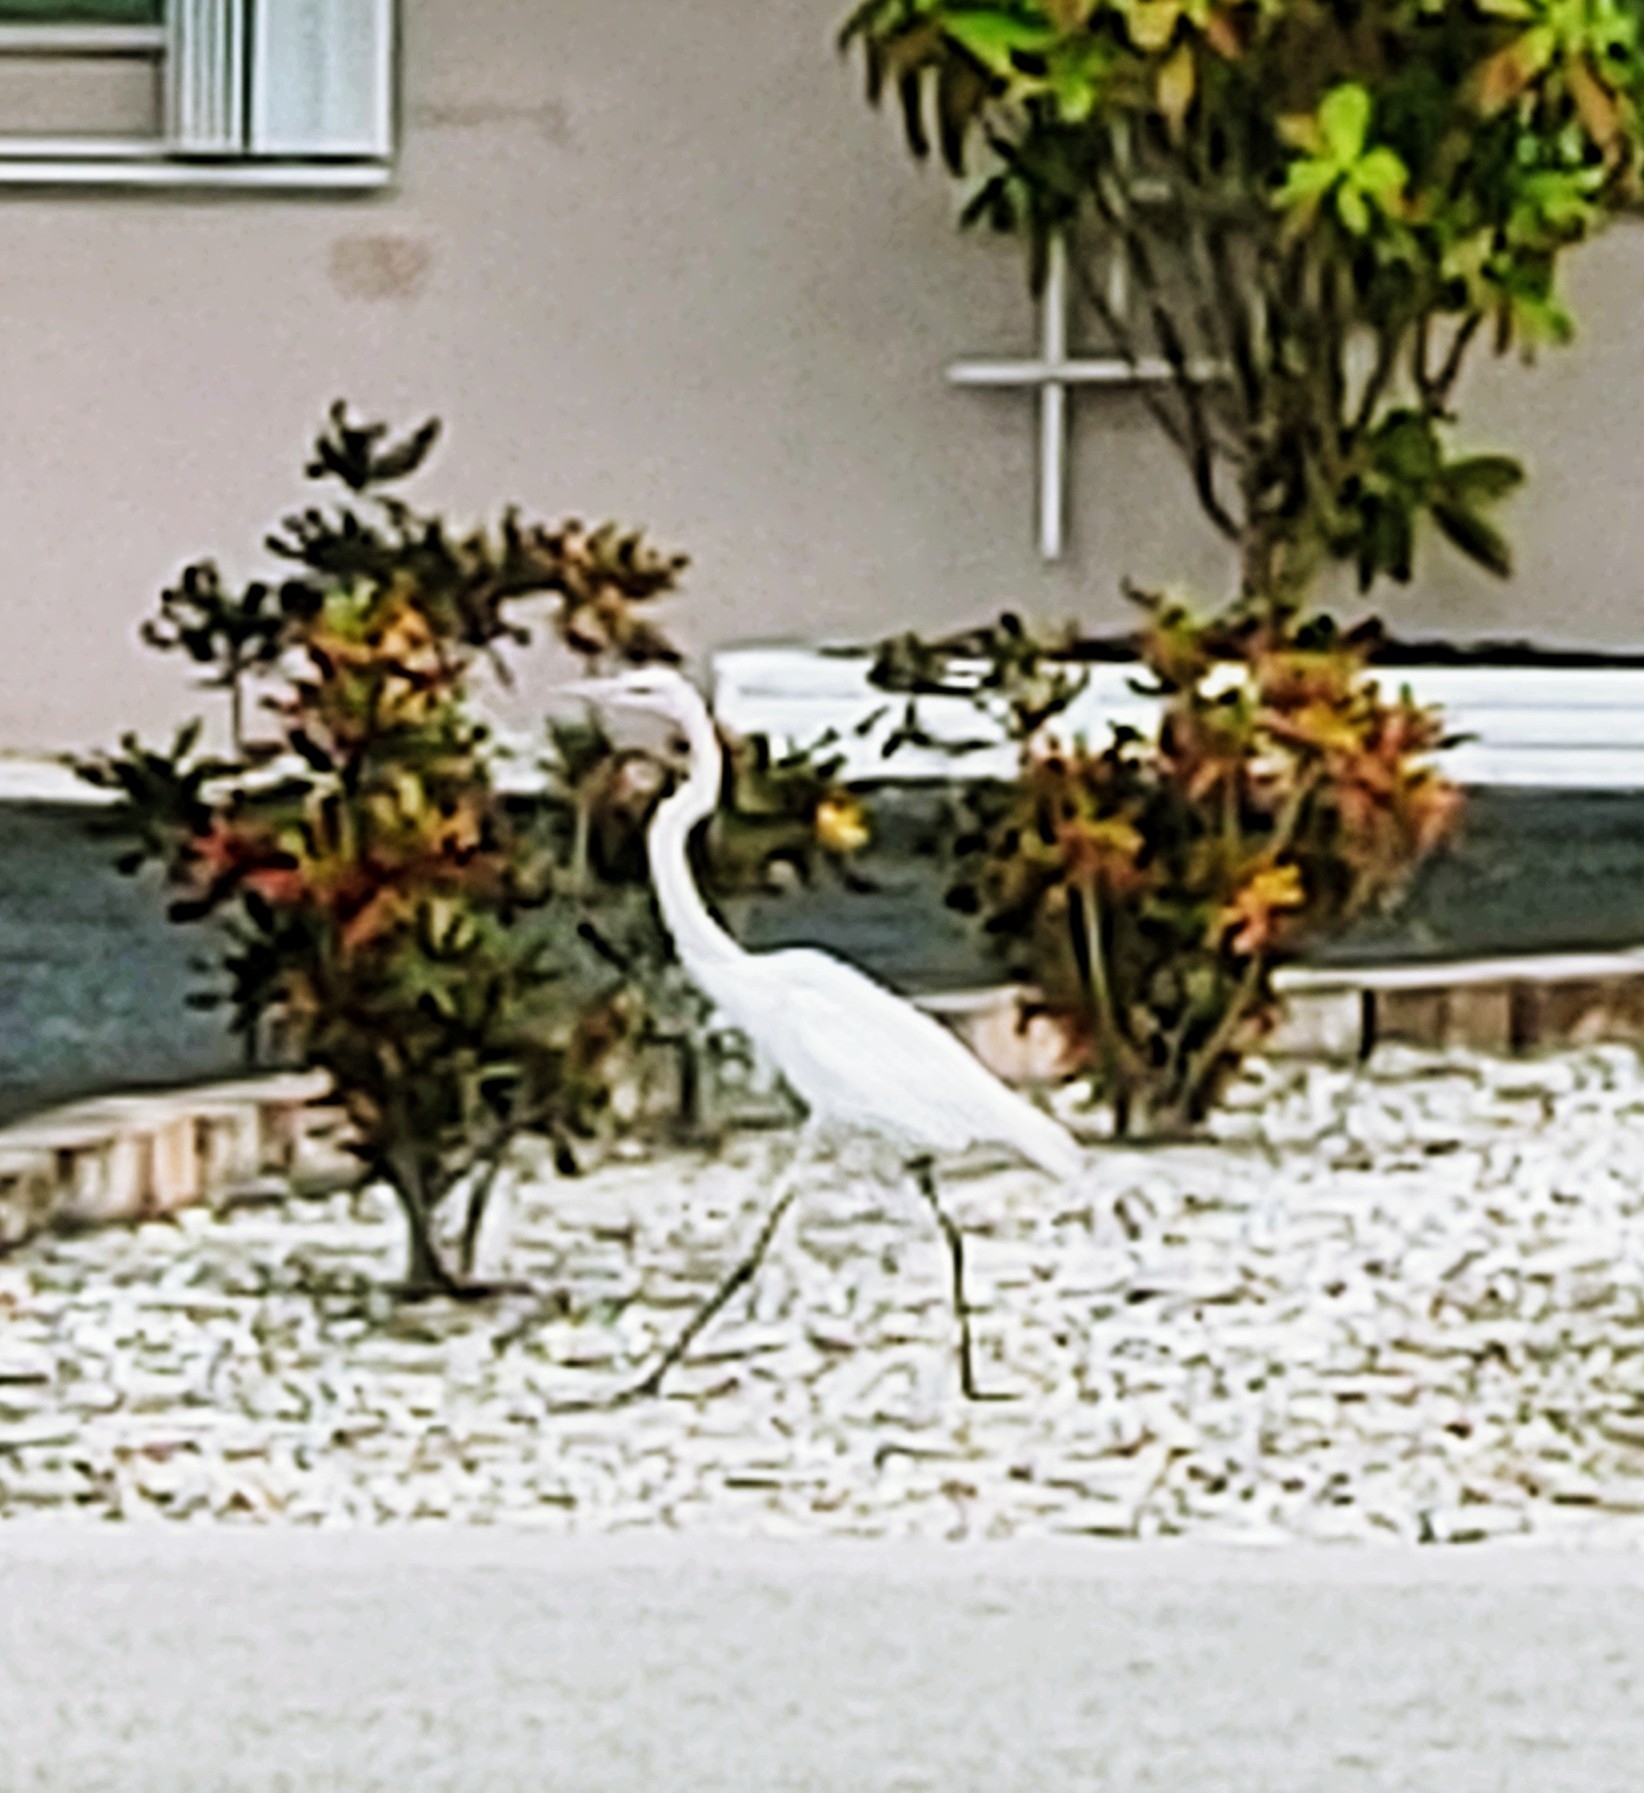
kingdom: Animalia
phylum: Chordata
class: Aves
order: Pelecaniformes
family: Ardeidae
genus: Ardea
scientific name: Ardea alba
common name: Great egret
